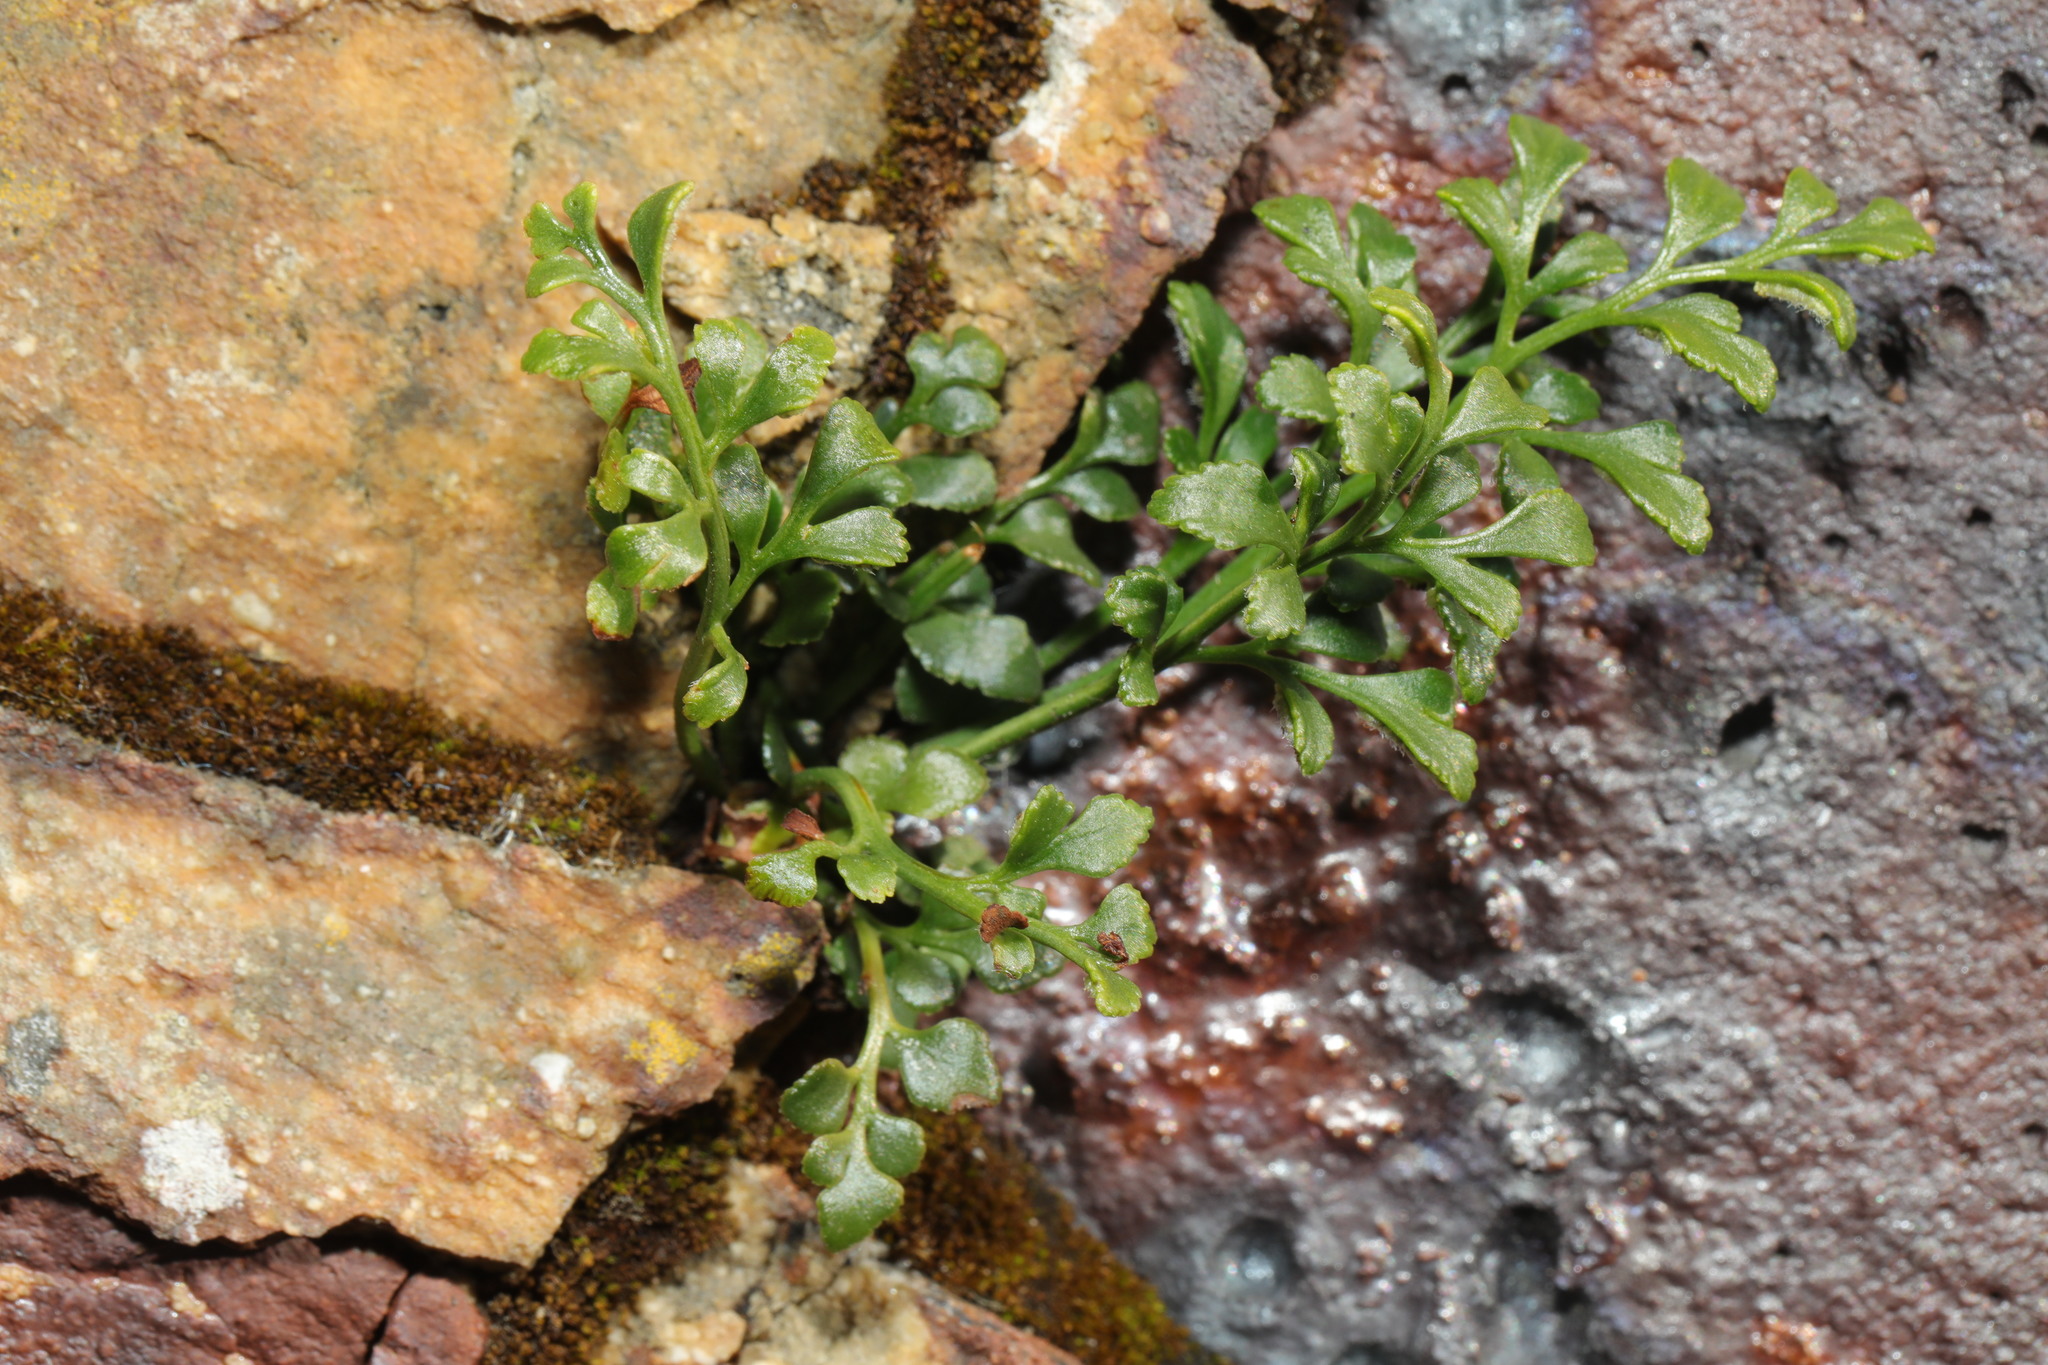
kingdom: Plantae
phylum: Tracheophyta
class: Polypodiopsida
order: Polypodiales
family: Aspleniaceae
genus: Asplenium
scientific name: Asplenium ruta-muraria
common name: Wall-rue
